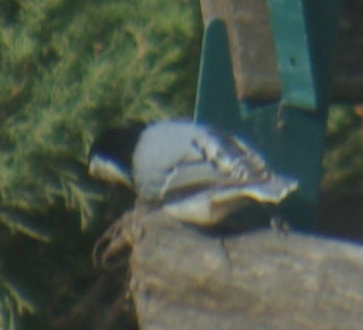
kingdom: Animalia
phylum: Chordata
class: Aves
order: Passeriformes
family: Sittidae
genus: Sitta
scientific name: Sitta carolinensis
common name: White-breasted nuthatch
